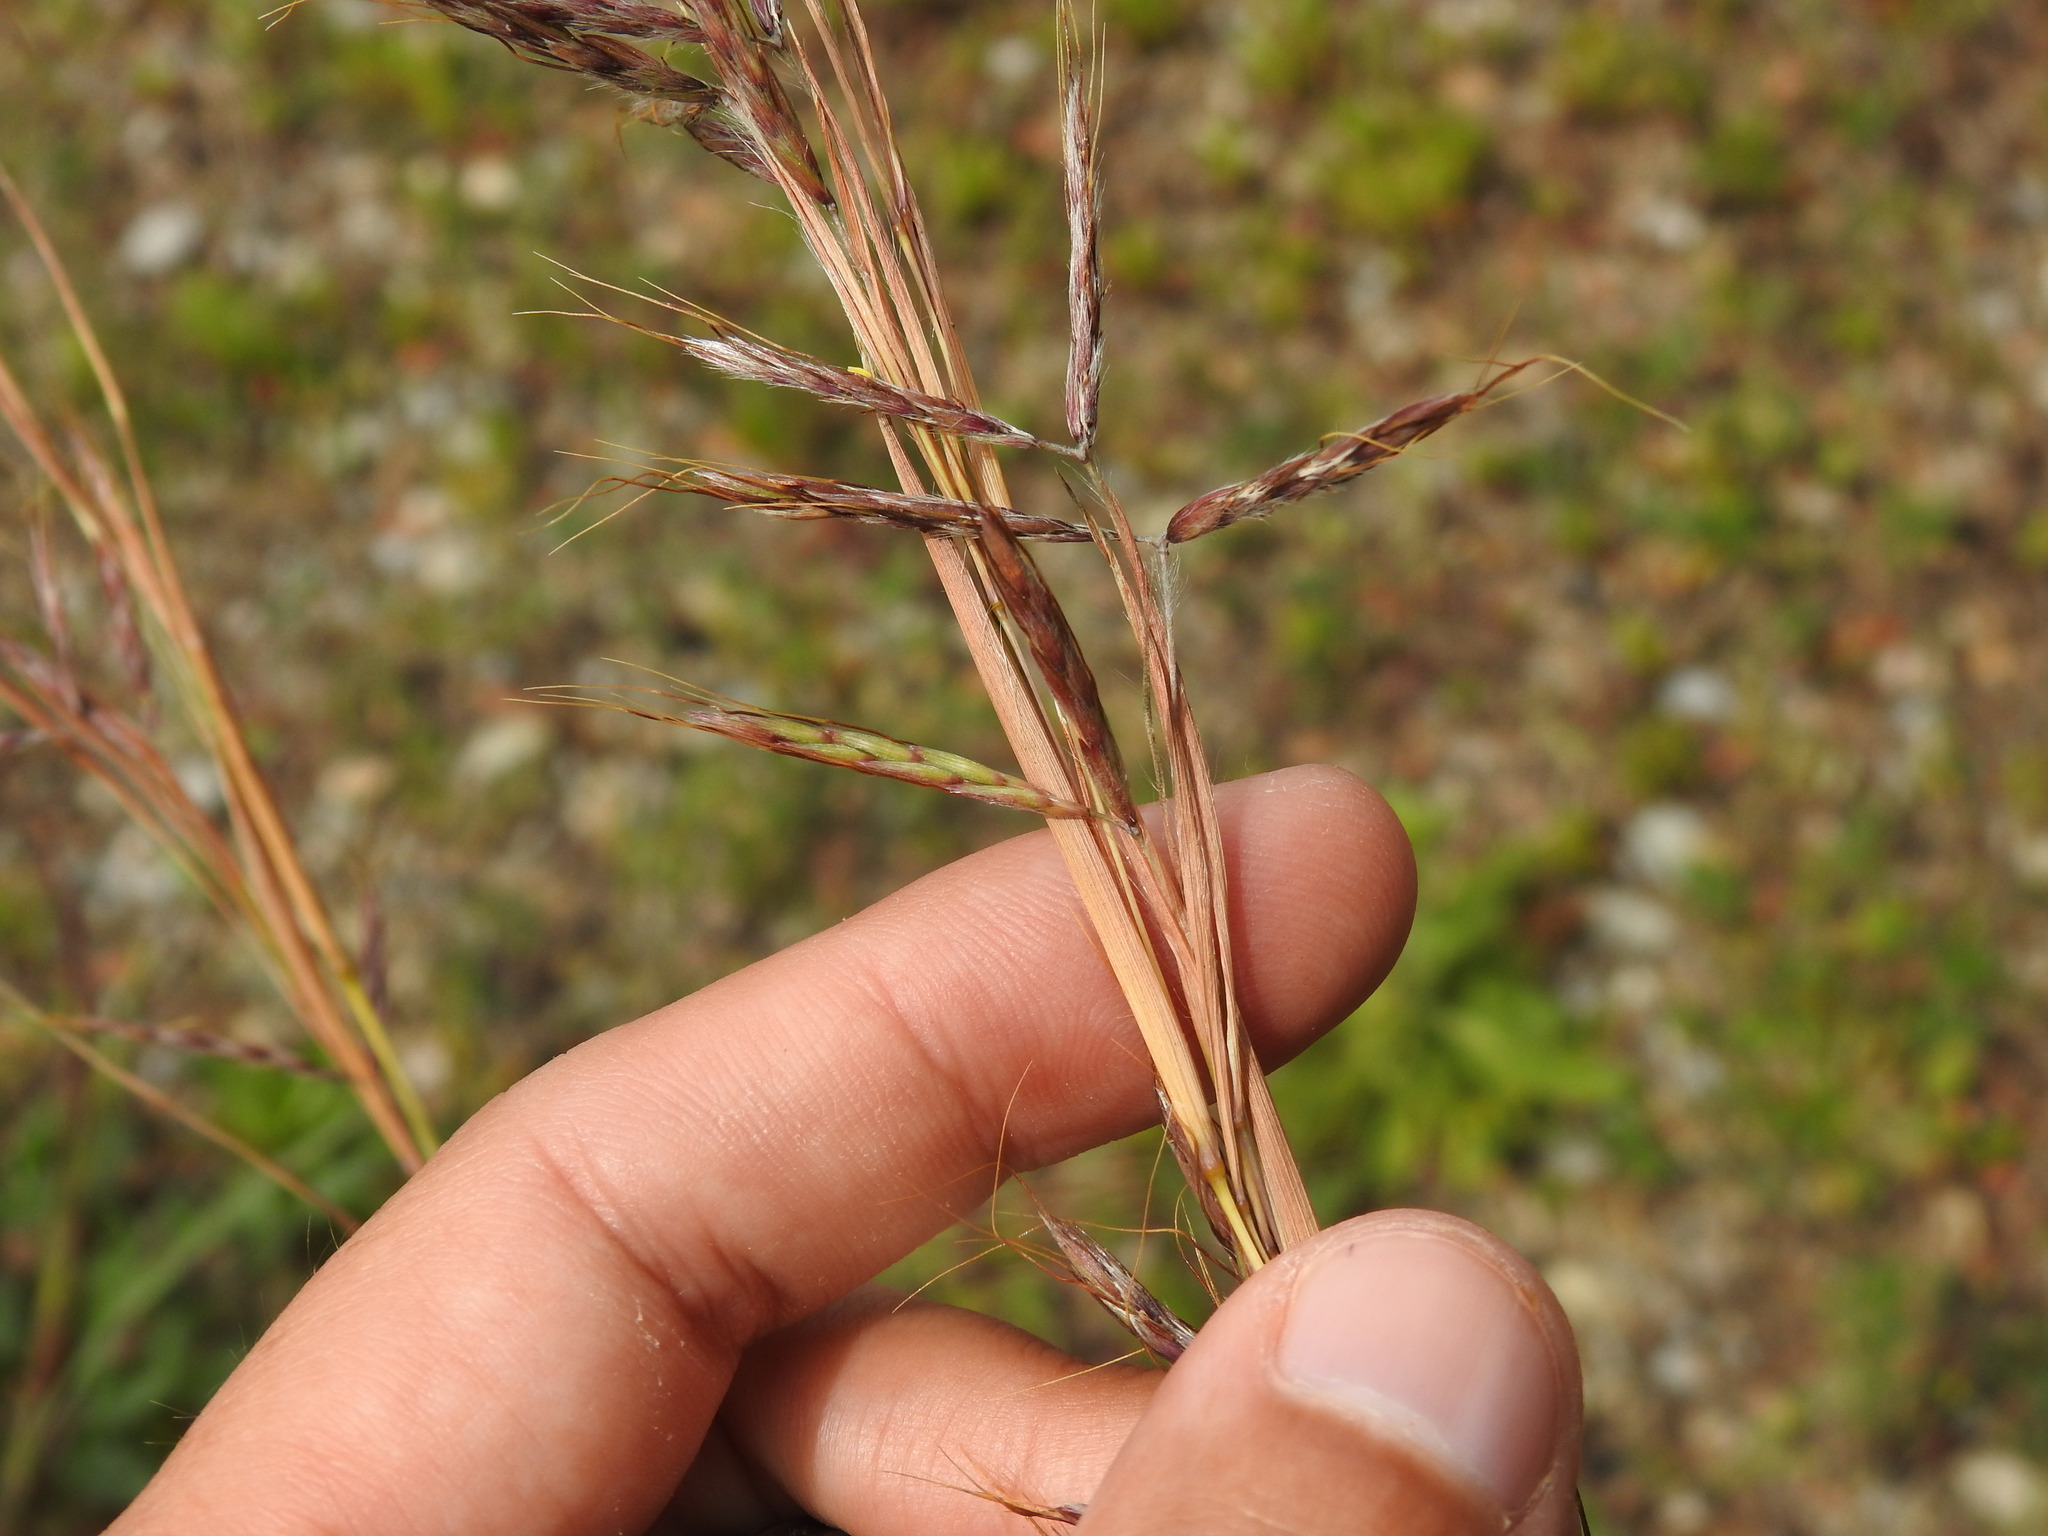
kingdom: Plantae
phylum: Tracheophyta
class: Liliopsida
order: Poales
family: Poaceae
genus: Hyparrhenia
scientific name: Hyparrhenia hirta
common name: Thatching grass
